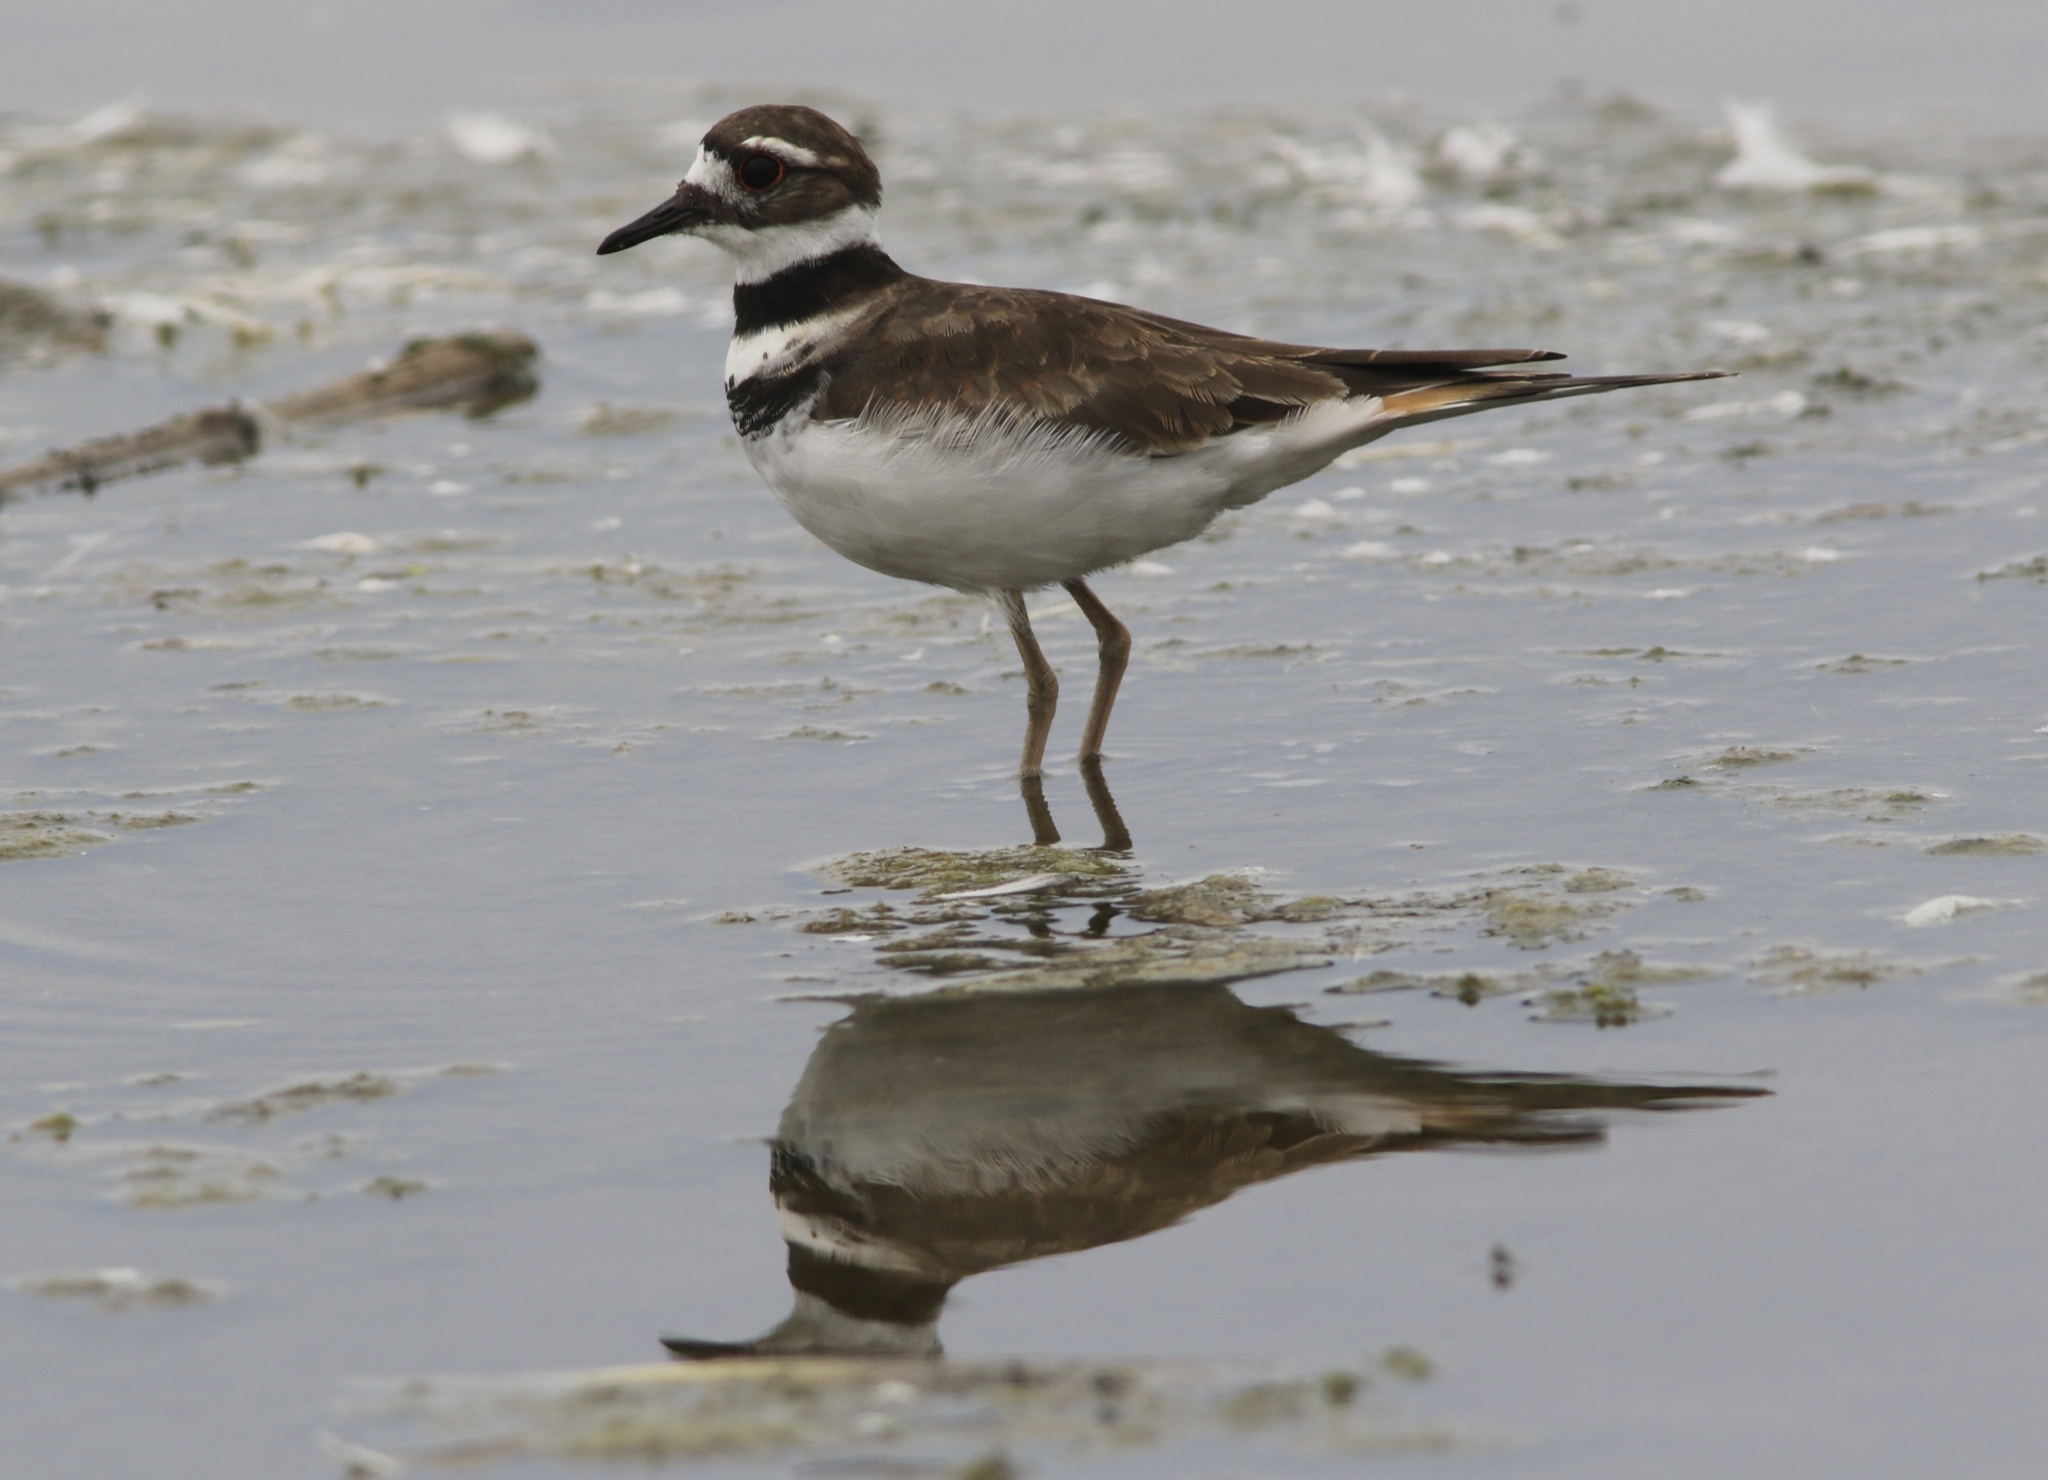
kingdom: Animalia
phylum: Chordata
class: Aves
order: Charadriiformes
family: Charadriidae
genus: Charadrius
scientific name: Charadrius vociferus
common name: Killdeer
